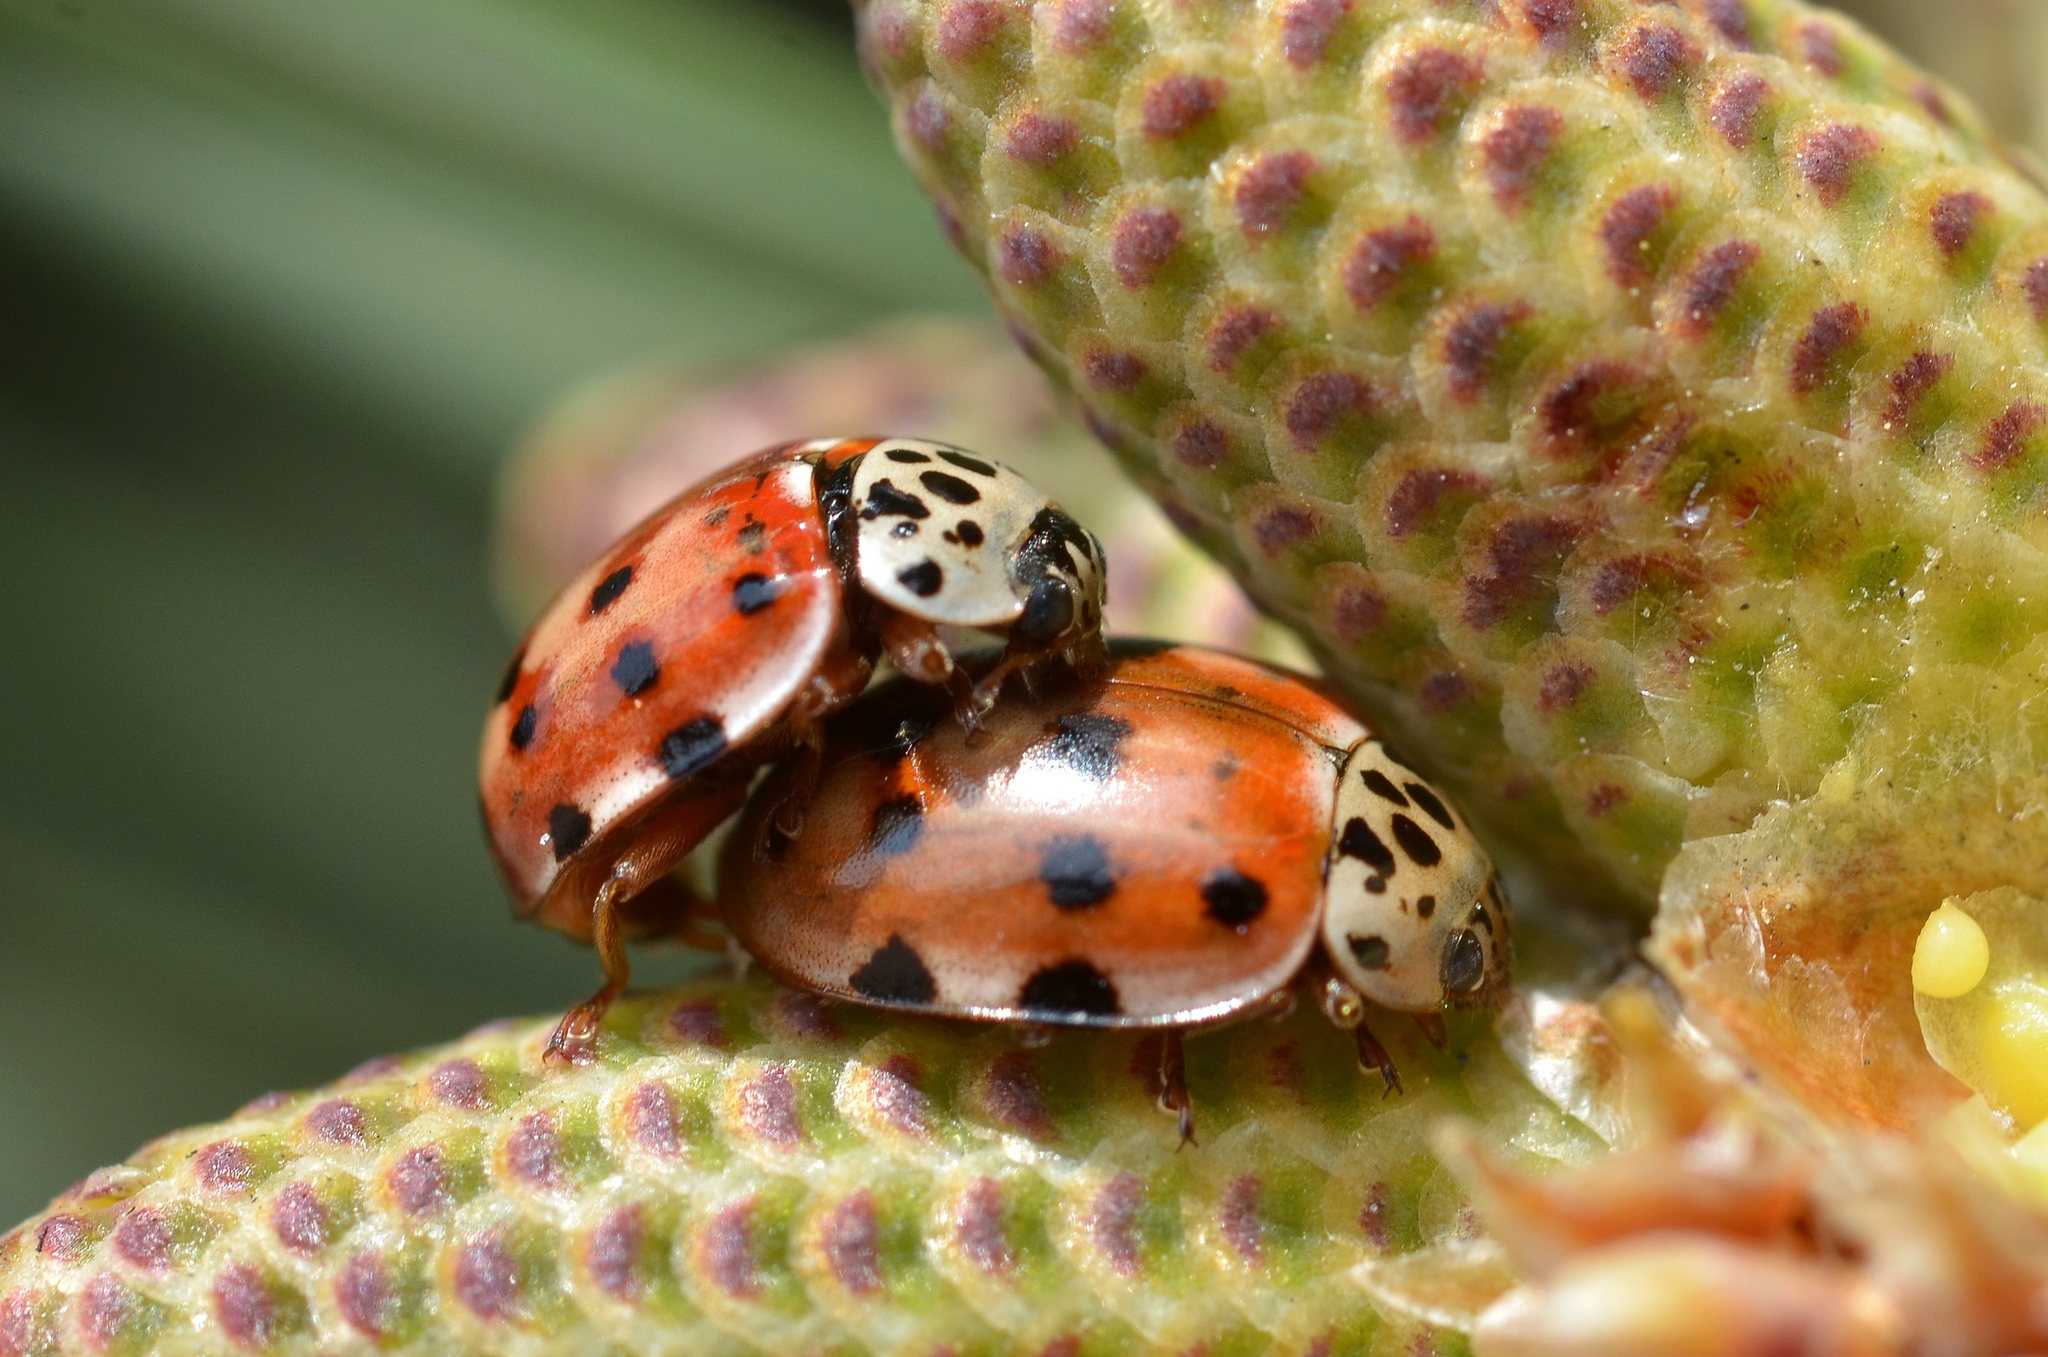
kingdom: Animalia
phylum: Arthropoda
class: Insecta
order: Coleoptera
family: Coccinellidae
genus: Harmonia
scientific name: Harmonia quadripunctata
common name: Cream-streaked ladybird
